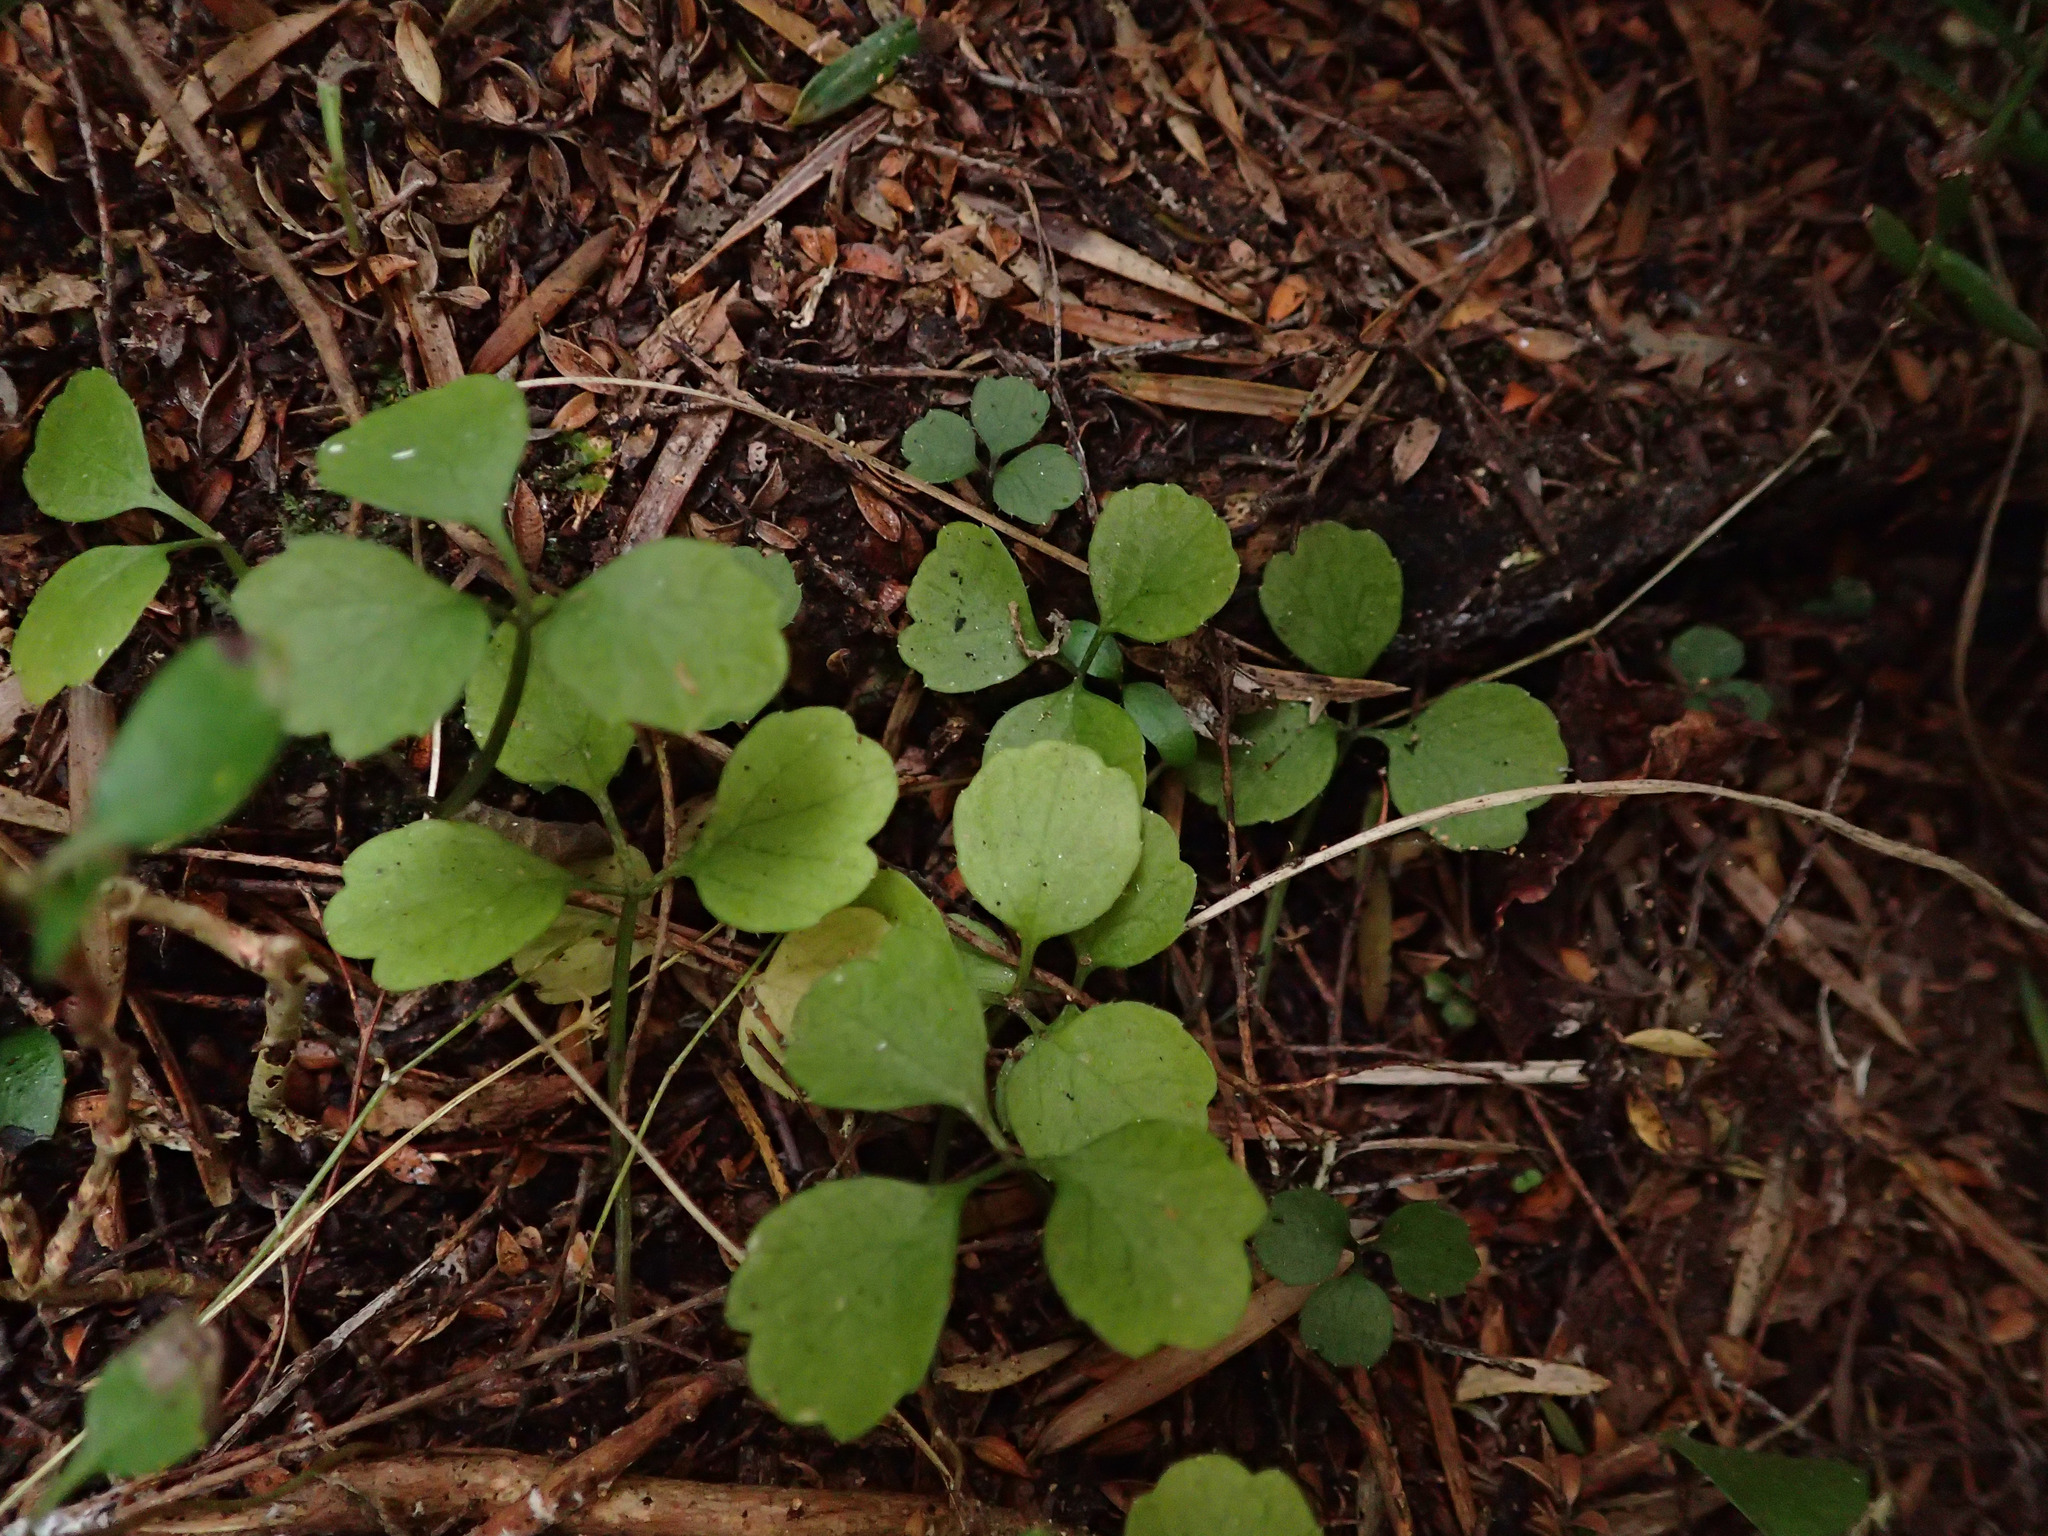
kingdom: Plantae
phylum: Tracheophyta
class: Magnoliopsida
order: Apiales
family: Apiaceae
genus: Azorella
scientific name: Azorella hookeri
